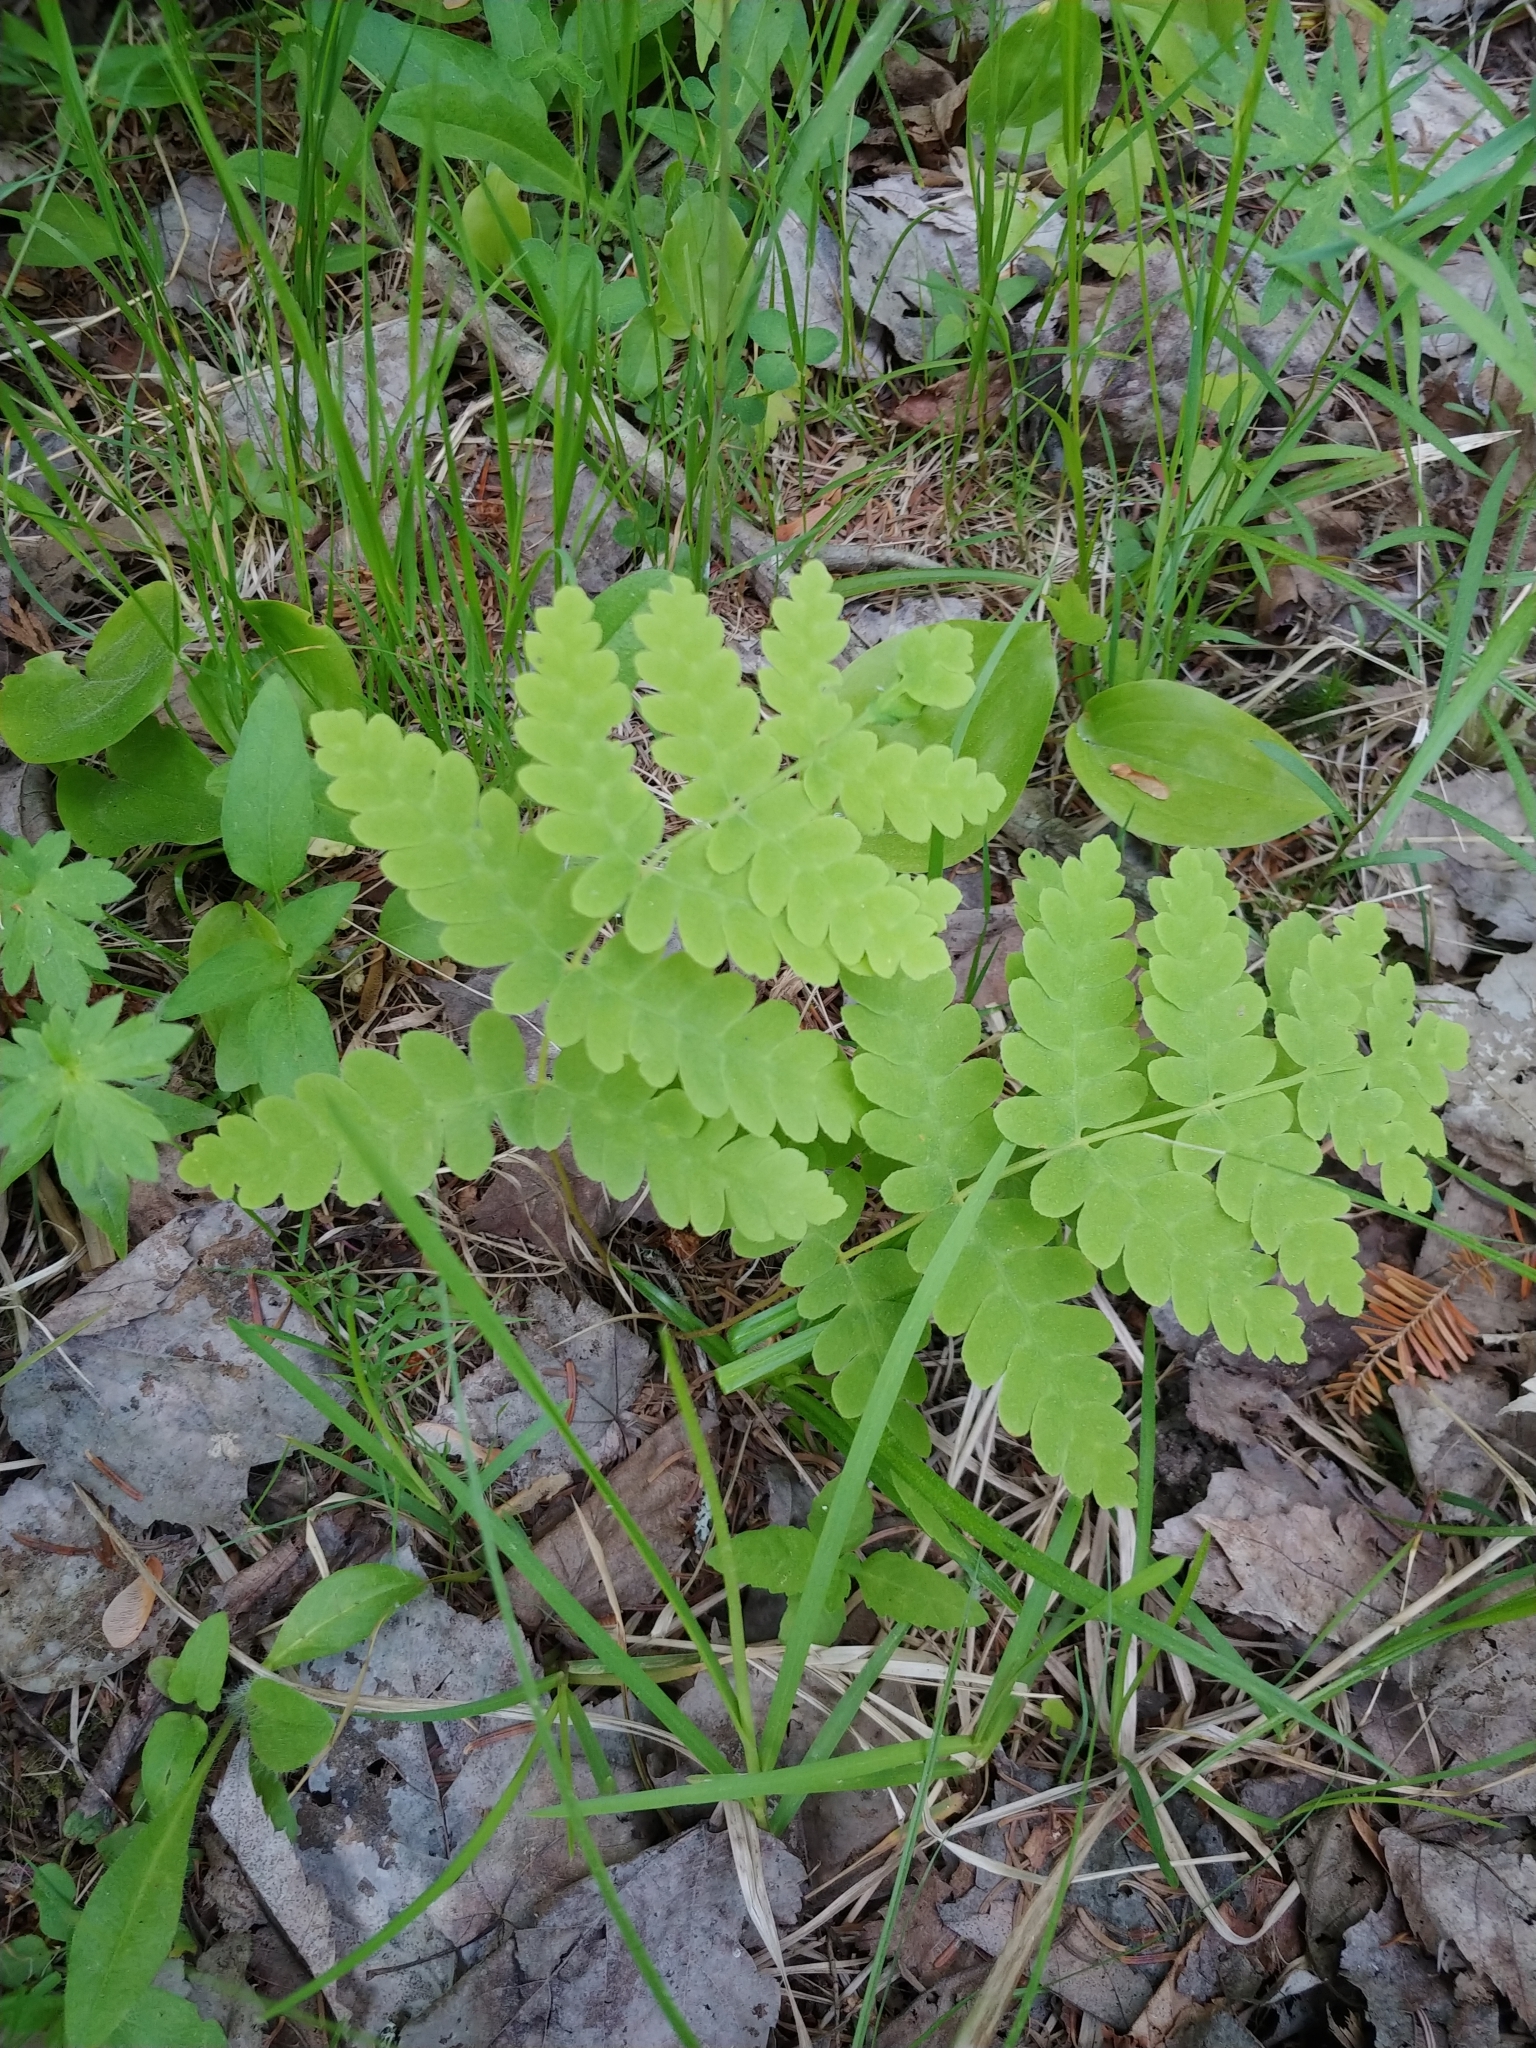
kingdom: Plantae
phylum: Tracheophyta
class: Polypodiopsida
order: Osmundales
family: Osmundaceae
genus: Claytosmunda
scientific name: Claytosmunda claytoniana
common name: Clayton's fern
